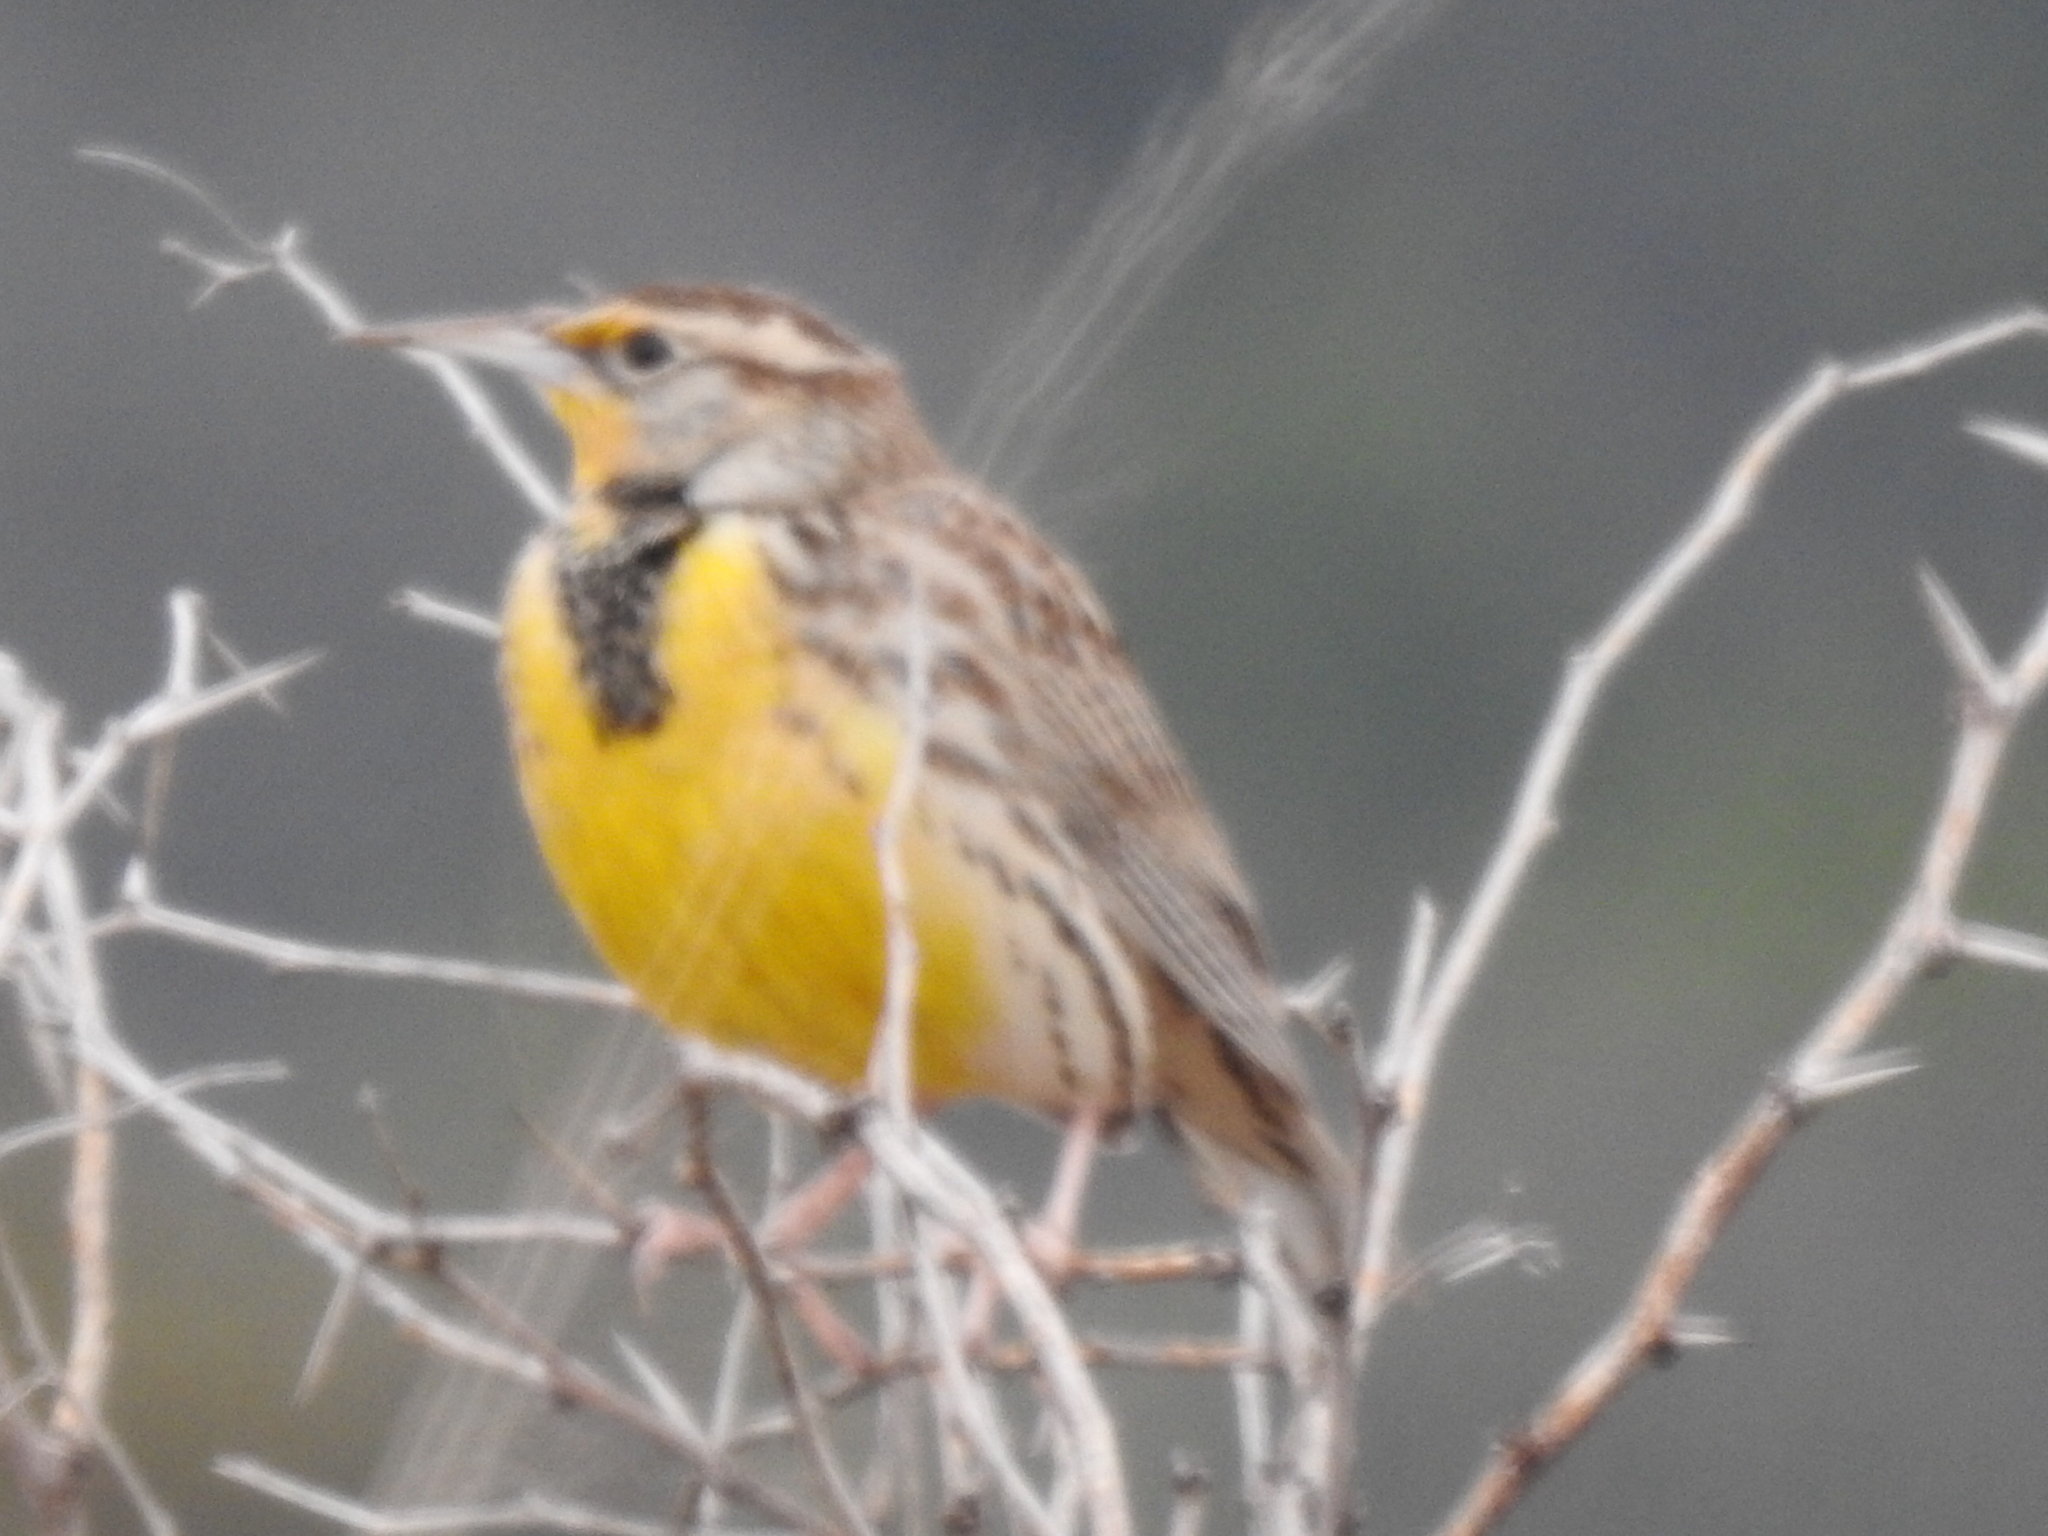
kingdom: Animalia
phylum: Chordata
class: Aves
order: Passeriformes
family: Icteridae
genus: Sturnella
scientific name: Sturnella neglecta
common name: Western meadowlark
